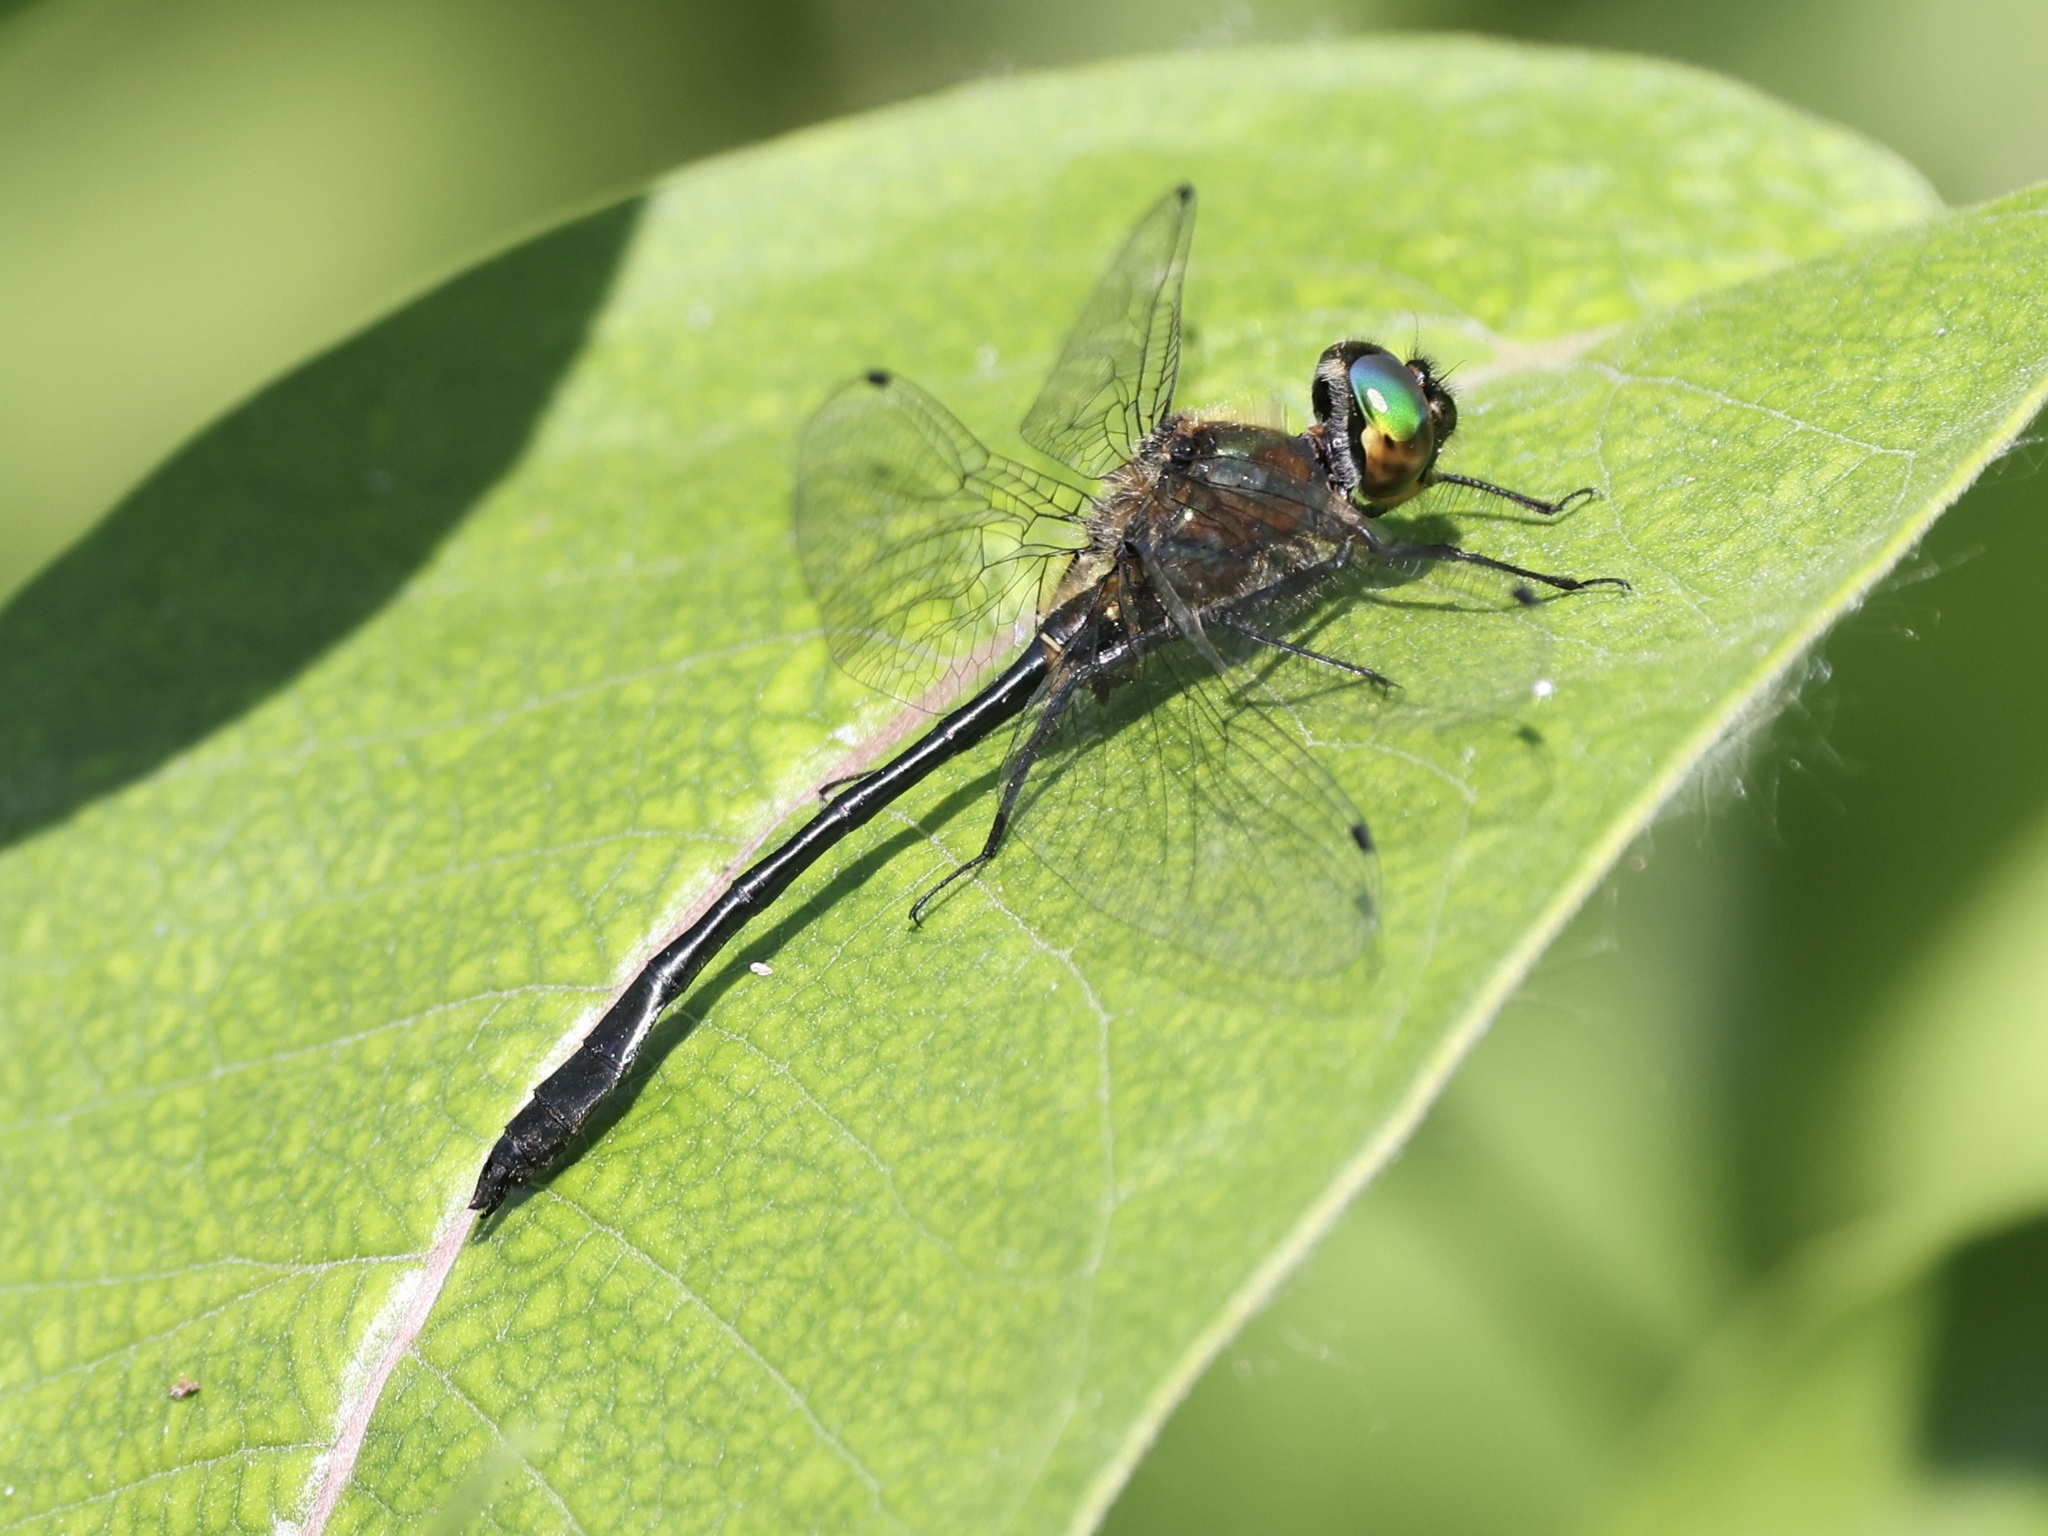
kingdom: Animalia
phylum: Arthropoda
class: Insecta
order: Odonata
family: Corduliidae
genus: Dorocordulia
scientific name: Dorocordulia libera
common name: Racket-tailed emerald
